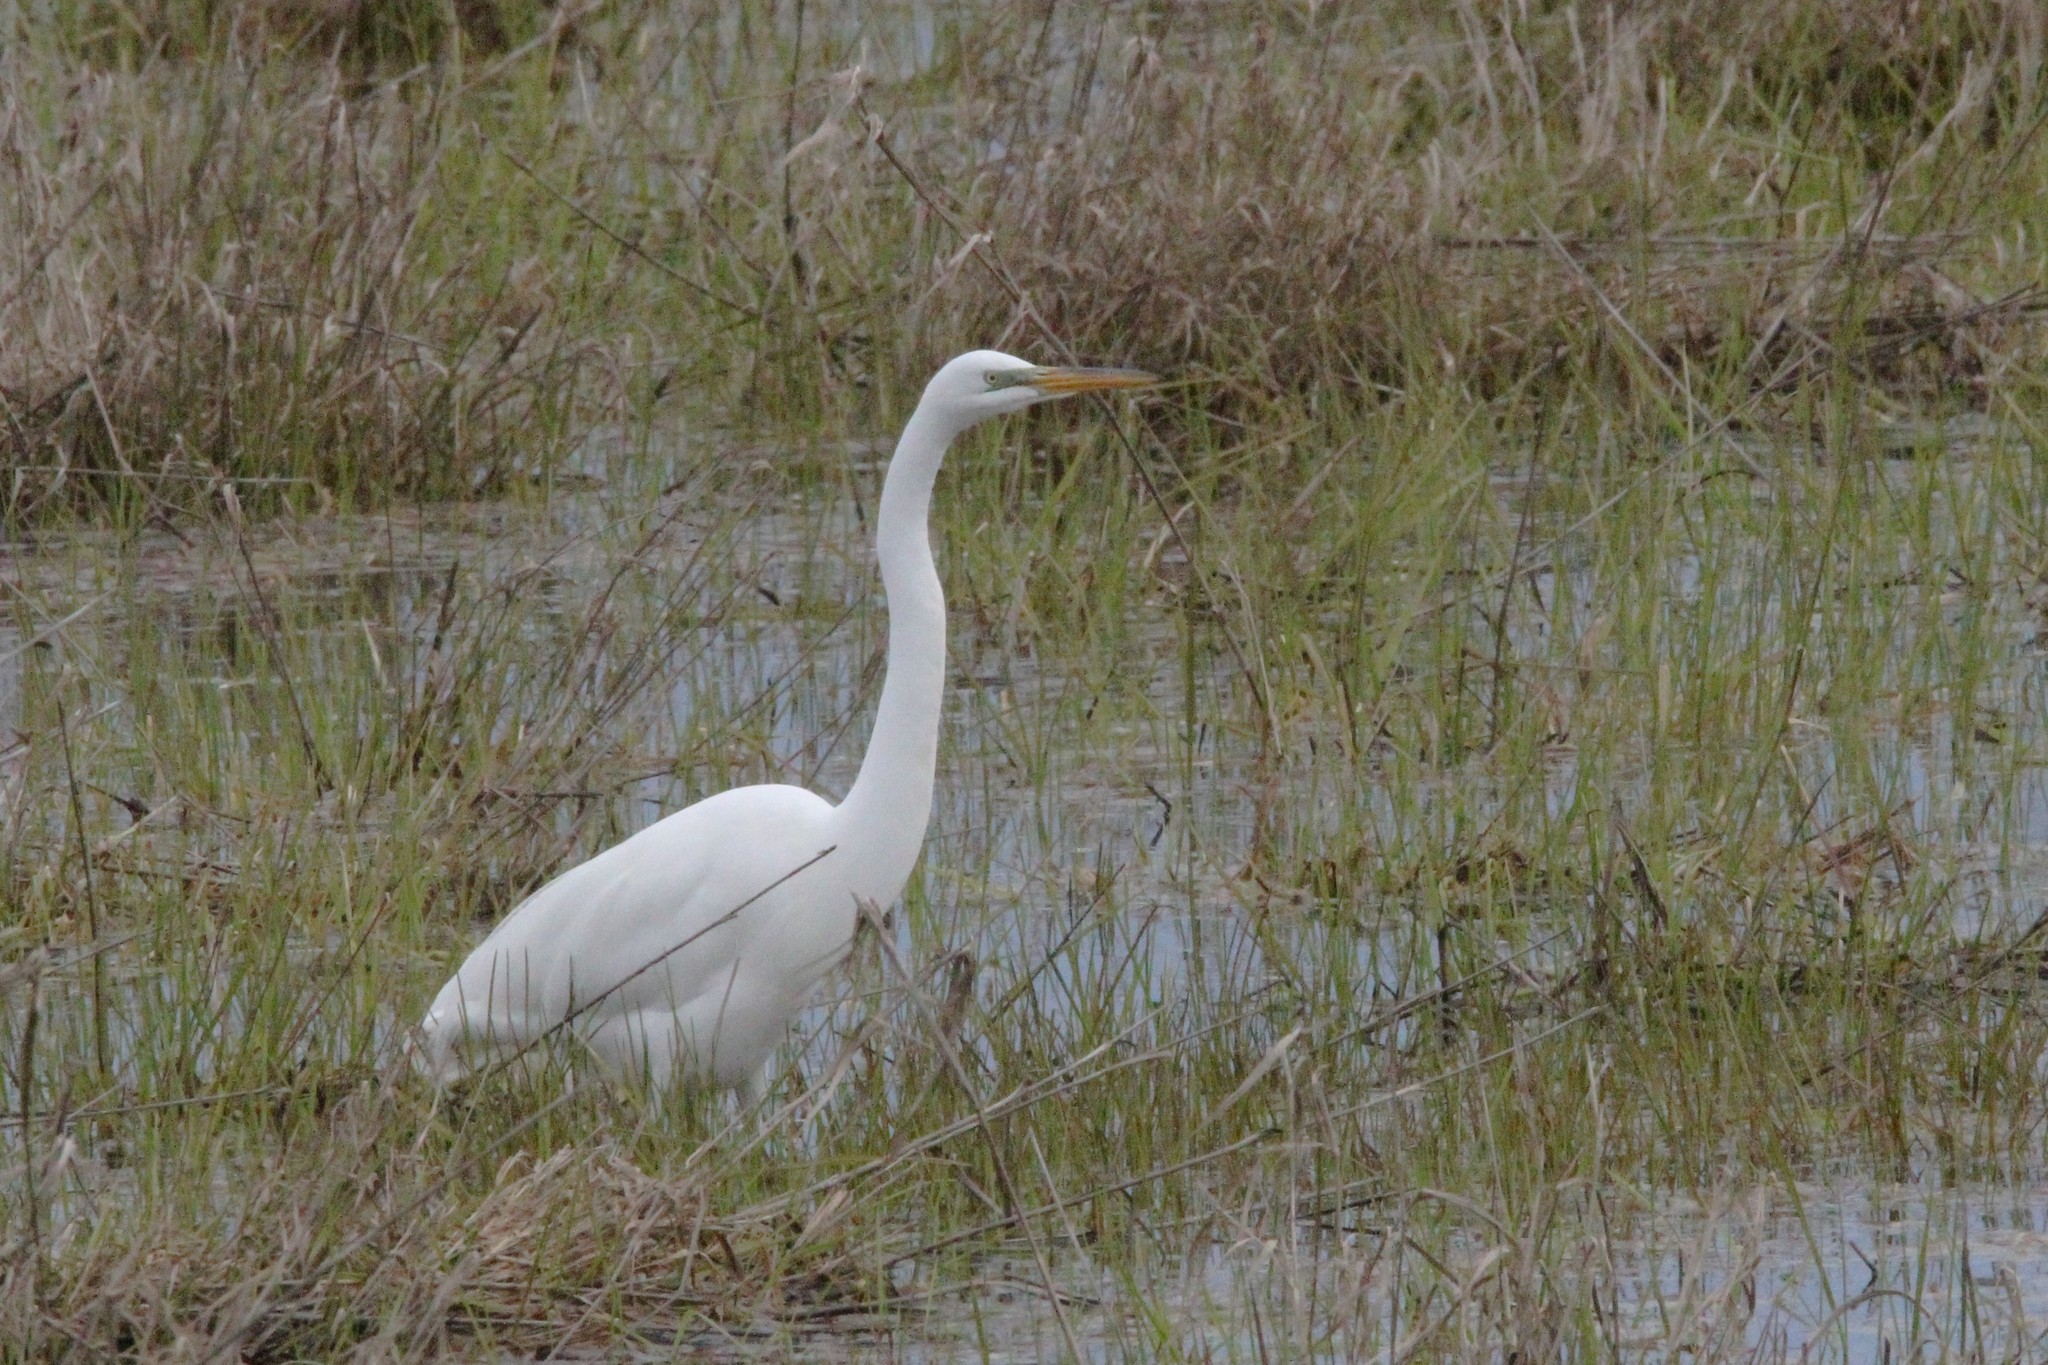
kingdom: Animalia
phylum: Chordata
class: Aves
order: Pelecaniformes
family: Ardeidae
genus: Ardea
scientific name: Ardea alba
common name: Great egret
